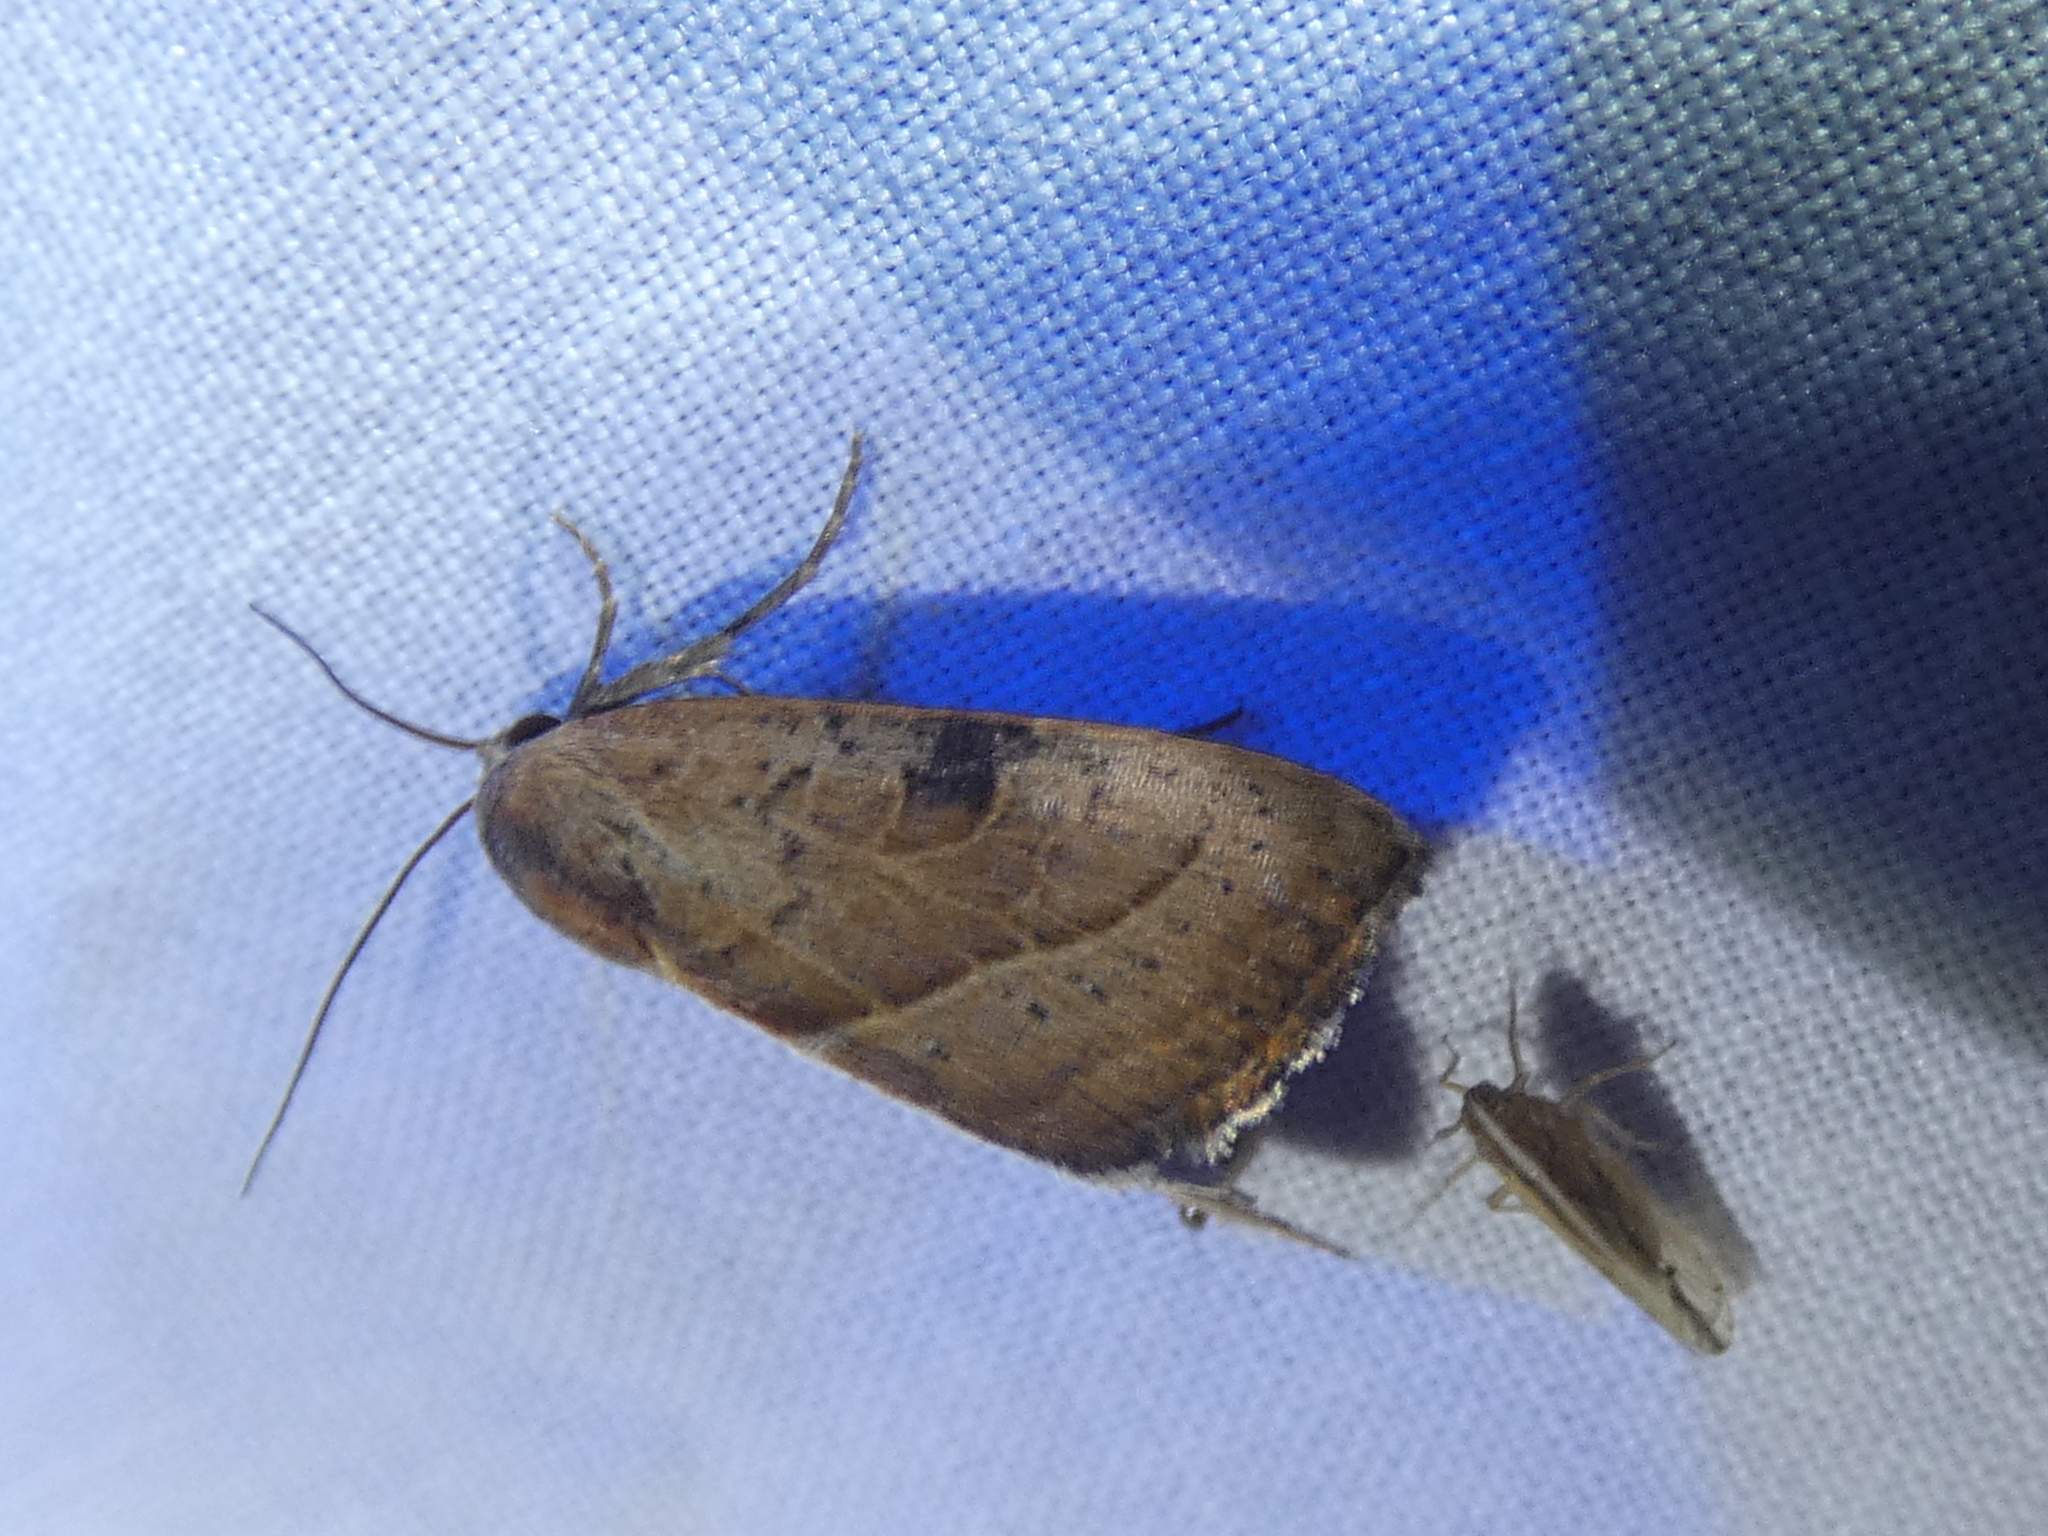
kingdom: Animalia
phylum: Arthropoda
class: Insecta
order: Lepidoptera
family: Noctuidae
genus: Galgula
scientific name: Galgula partita
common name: Wedgeling
